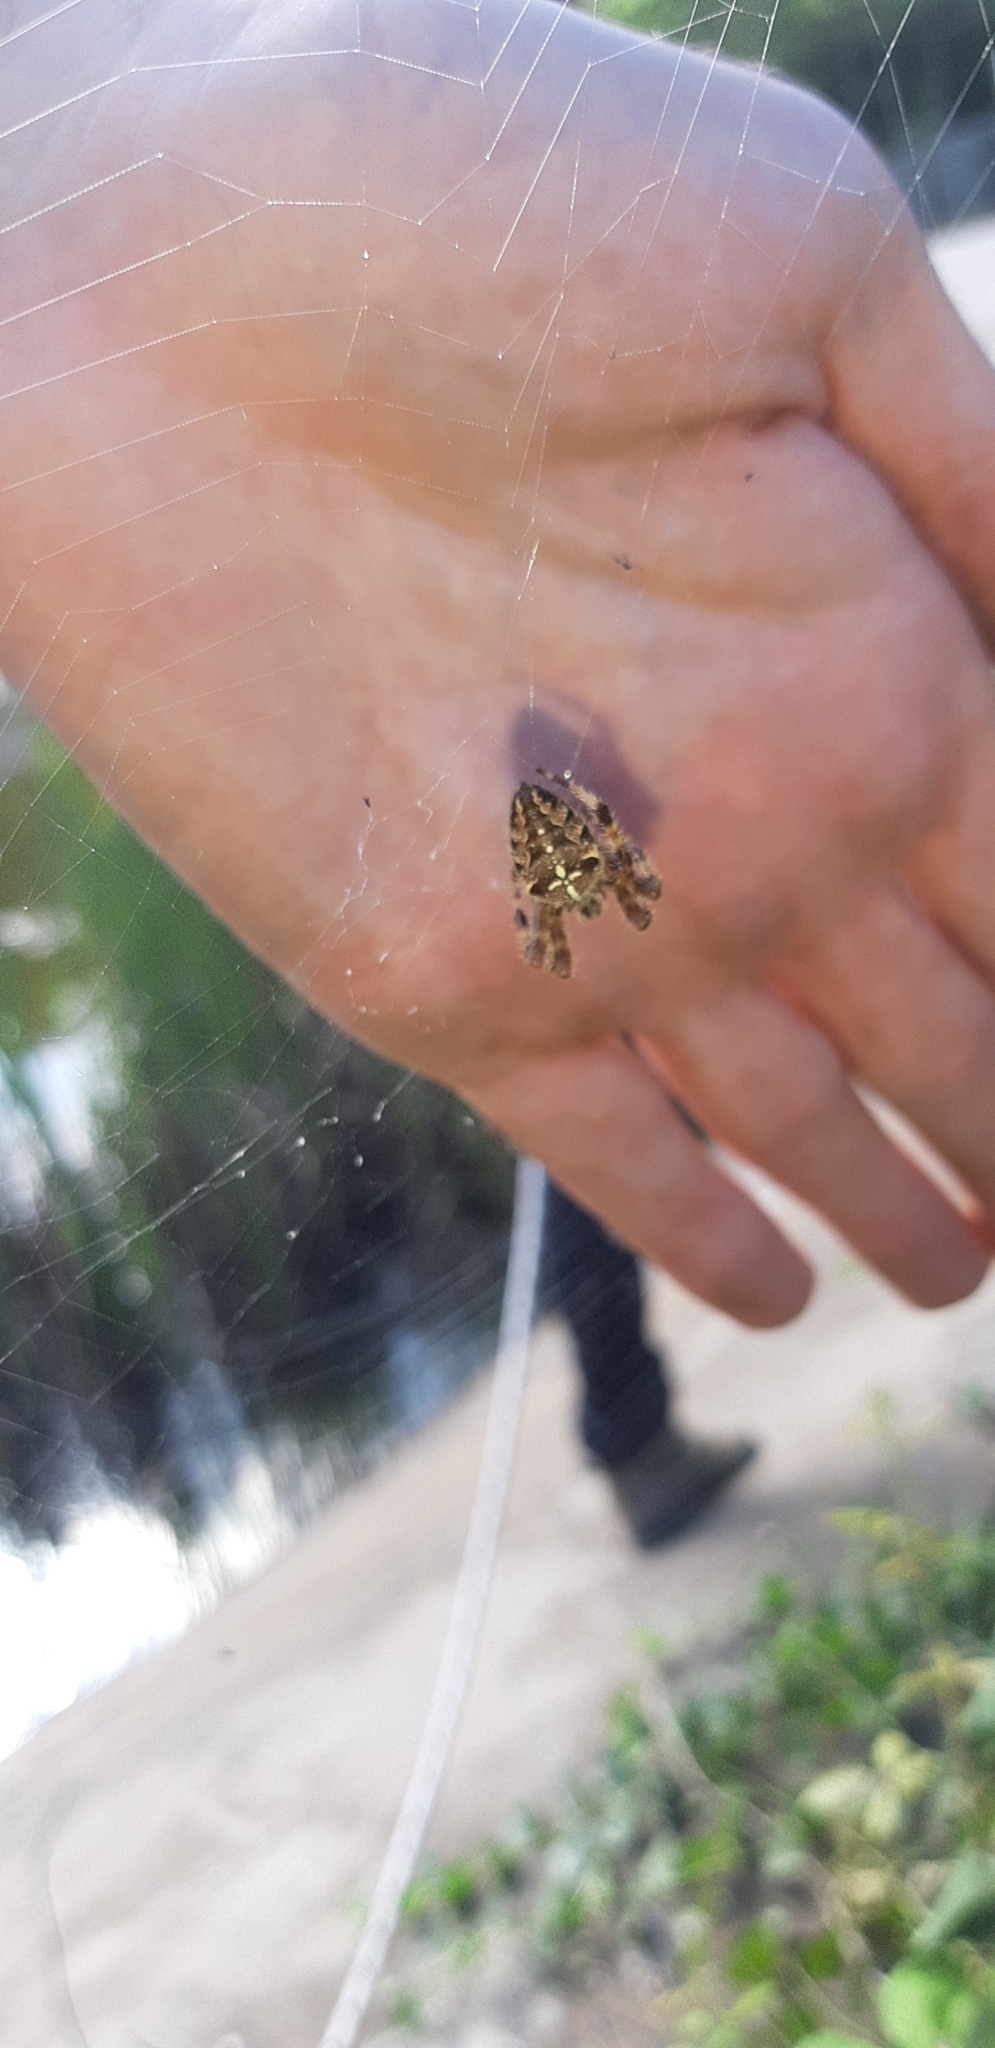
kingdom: Animalia
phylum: Arthropoda
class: Arachnida
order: Araneae
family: Araneidae
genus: Araneus
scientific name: Araneus diadematus
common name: Cross orbweaver
